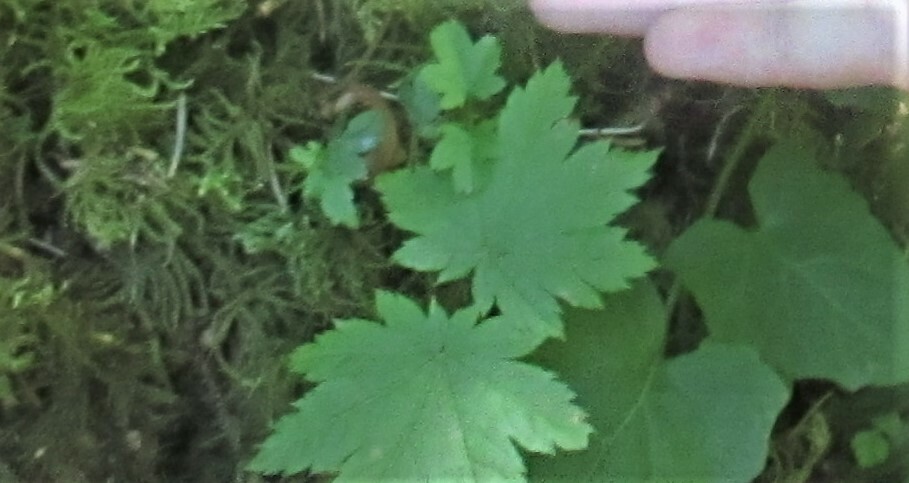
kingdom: Plantae
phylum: Tracheophyta
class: Magnoliopsida
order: Sapindales
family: Sapindaceae
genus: Acer
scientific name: Acer circinatum
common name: Vine maple
